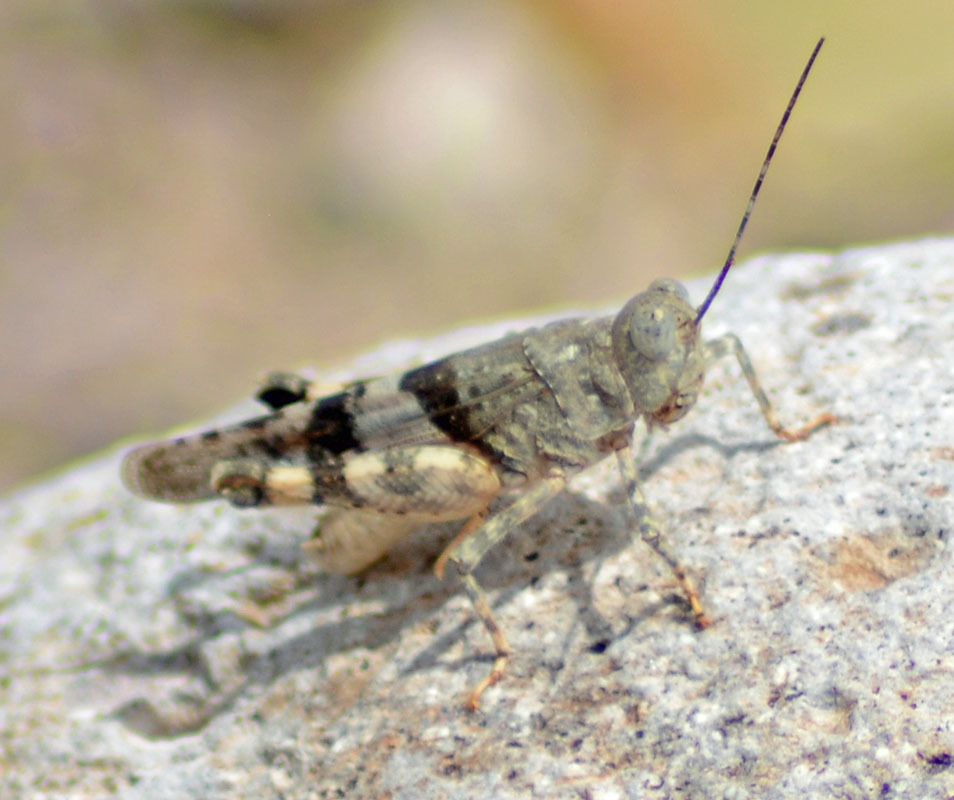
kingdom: Animalia
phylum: Arthropoda
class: Insecta
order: Orthoptera
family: Acrididae
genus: Heliastus
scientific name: Heliastus benjamini
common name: Arroyo grasshopper
